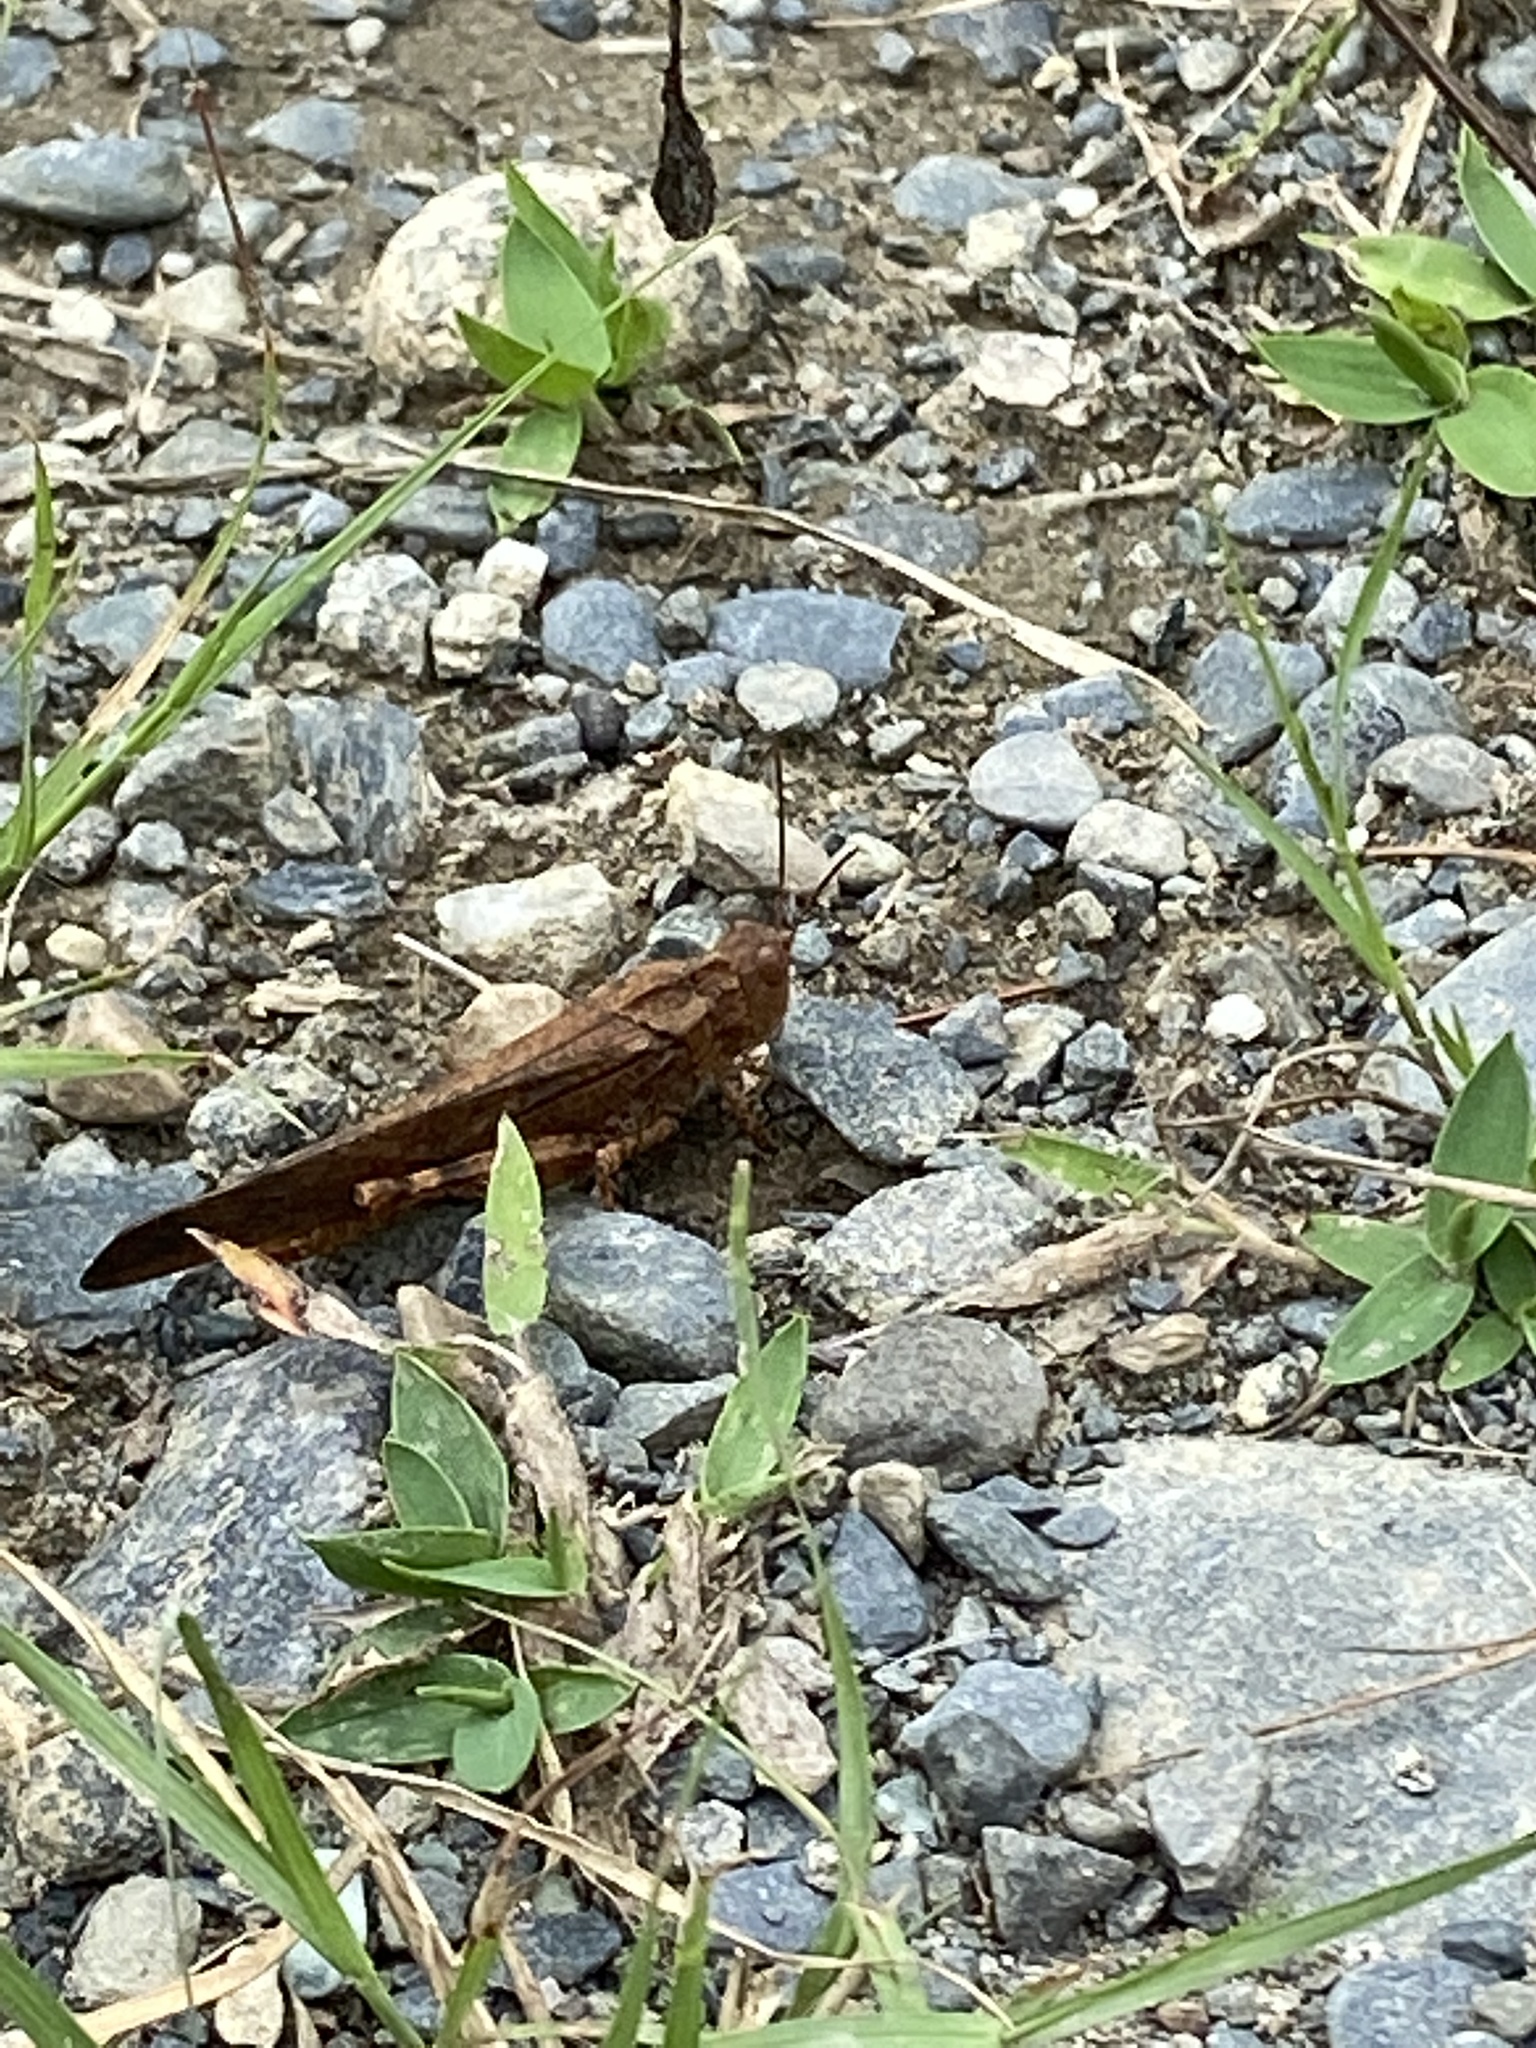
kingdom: Animalia
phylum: Arthropoda
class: Insecta
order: Orthoptera
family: Acrididae
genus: Dissosteira
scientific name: Dissosteira carolina
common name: Carolina grasshopper
